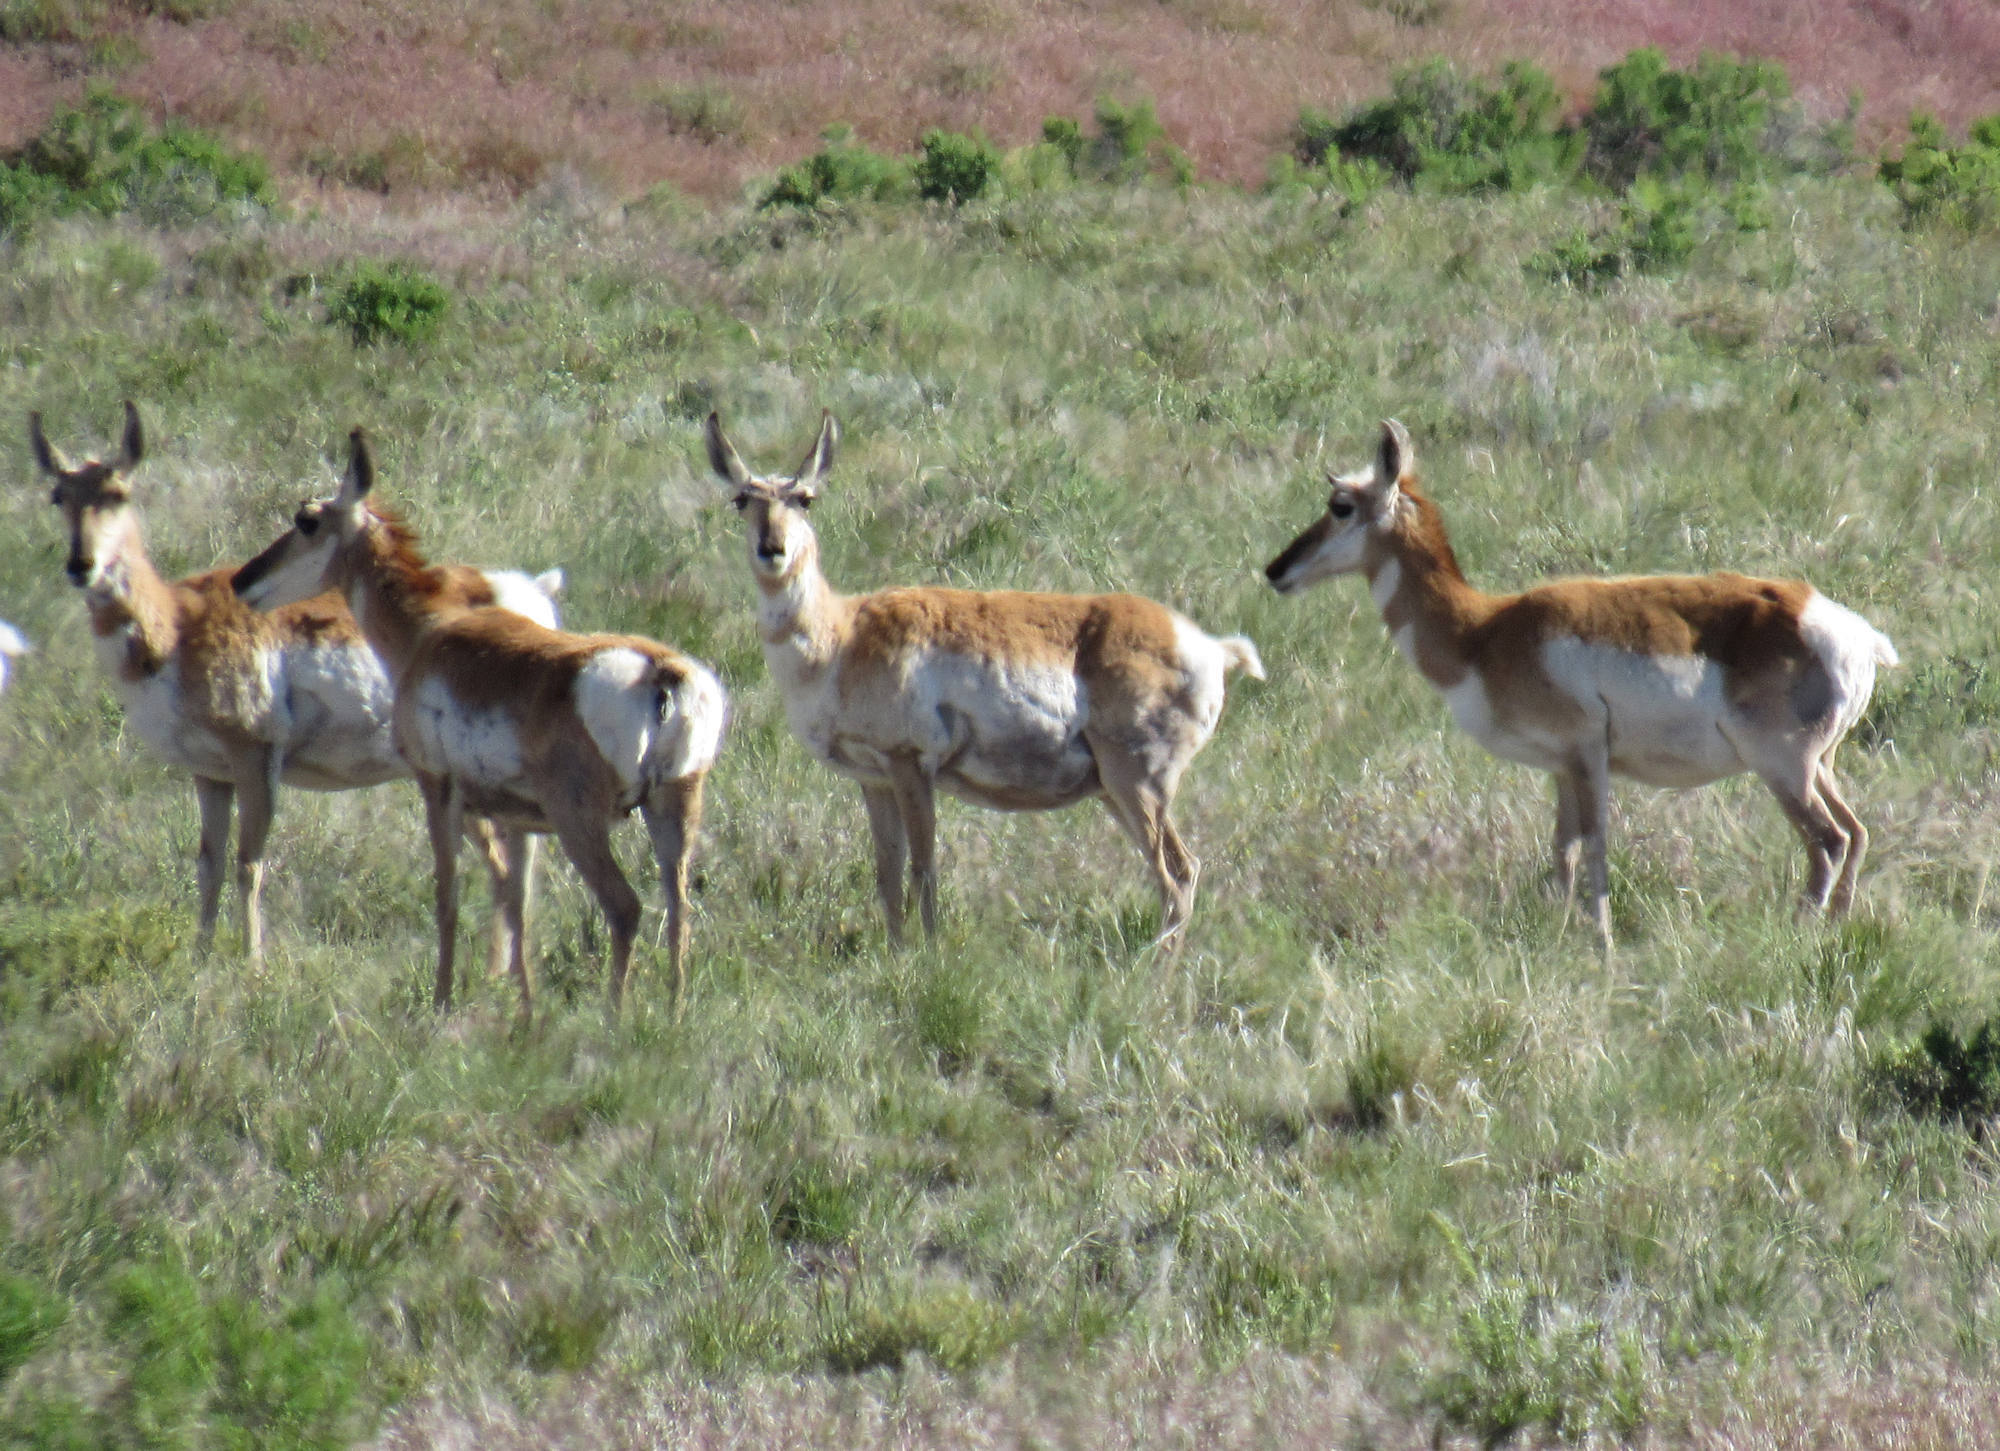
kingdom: Animalia
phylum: Chordata
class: Mammalia
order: Artiodactyla
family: Antilocapridae
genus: Antilocapra
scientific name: Antilocapra americana
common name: Pronghorn
